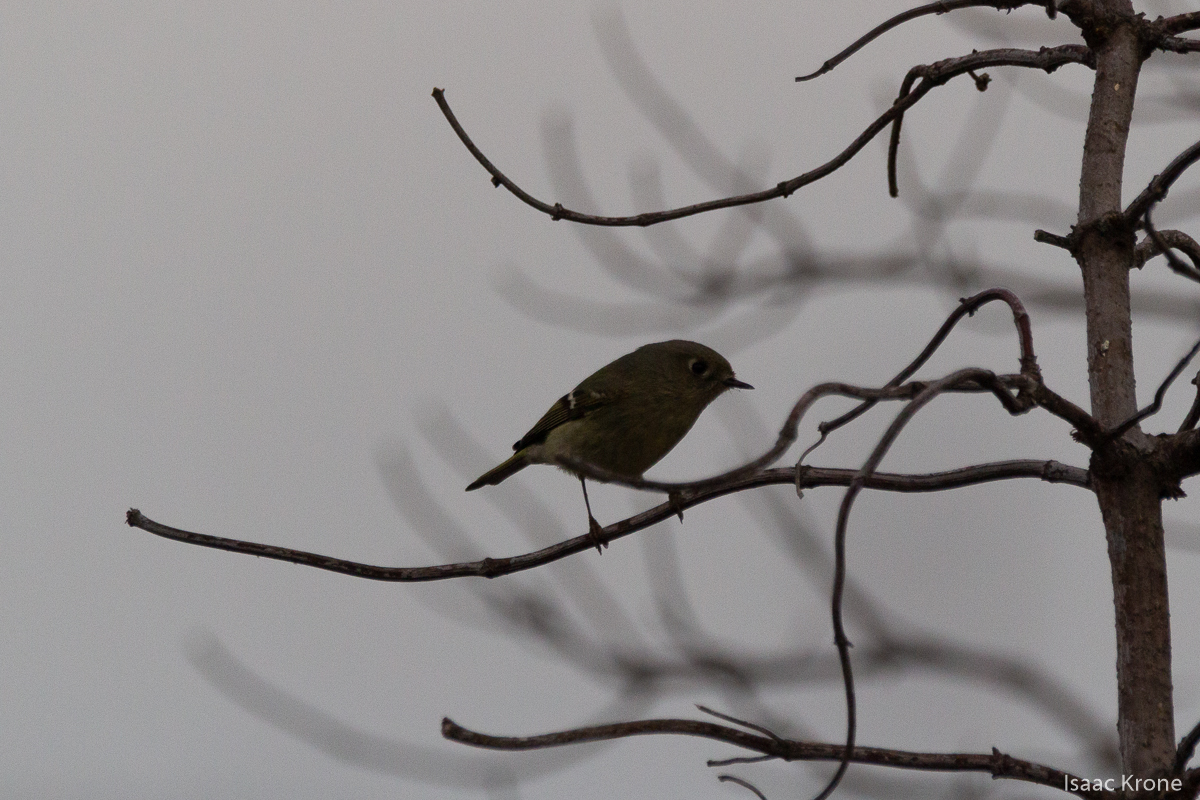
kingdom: Animalia
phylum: Chordata
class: Aves
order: Passeriformes
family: Regulidae
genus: Regulus
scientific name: Regulus calendula
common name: Ruby-crowned kinglet
